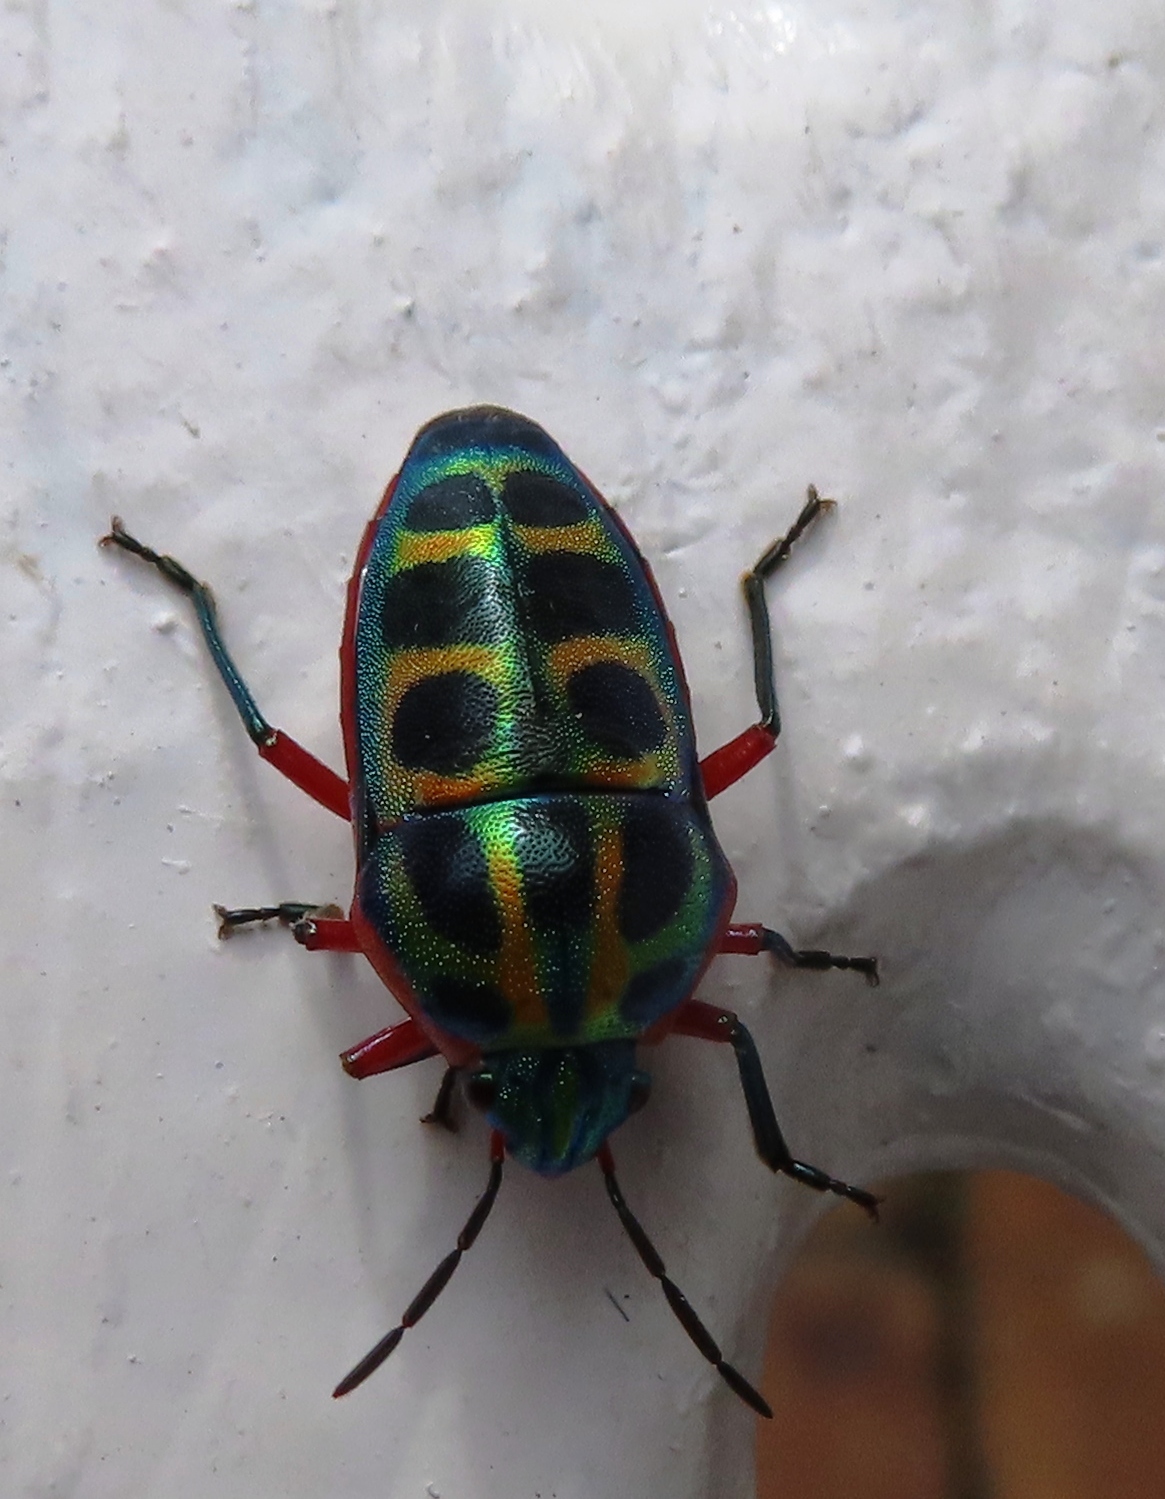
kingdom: Animalia
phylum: Arthropoda
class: Insecta
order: Hemiptera
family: Scutelleridae
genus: Calidea
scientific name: Calidea dregii
